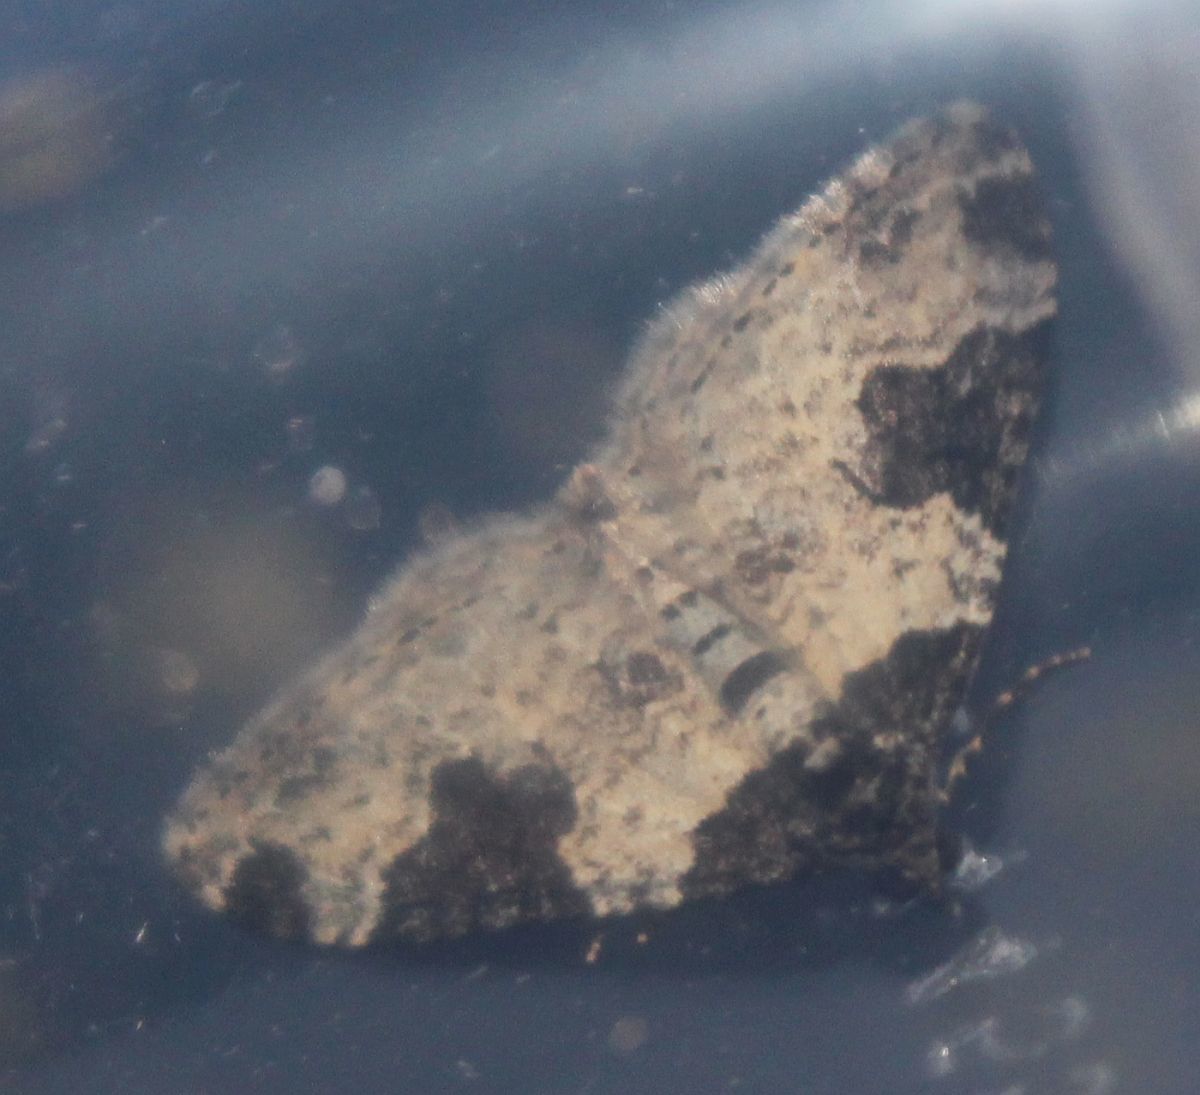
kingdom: Animalia
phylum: Arthropoda
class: Insecta
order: Lepidoptera
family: Geometridae
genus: Xanthorhoe
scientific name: Xanthorhoe fluctuata
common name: Garden carpet
